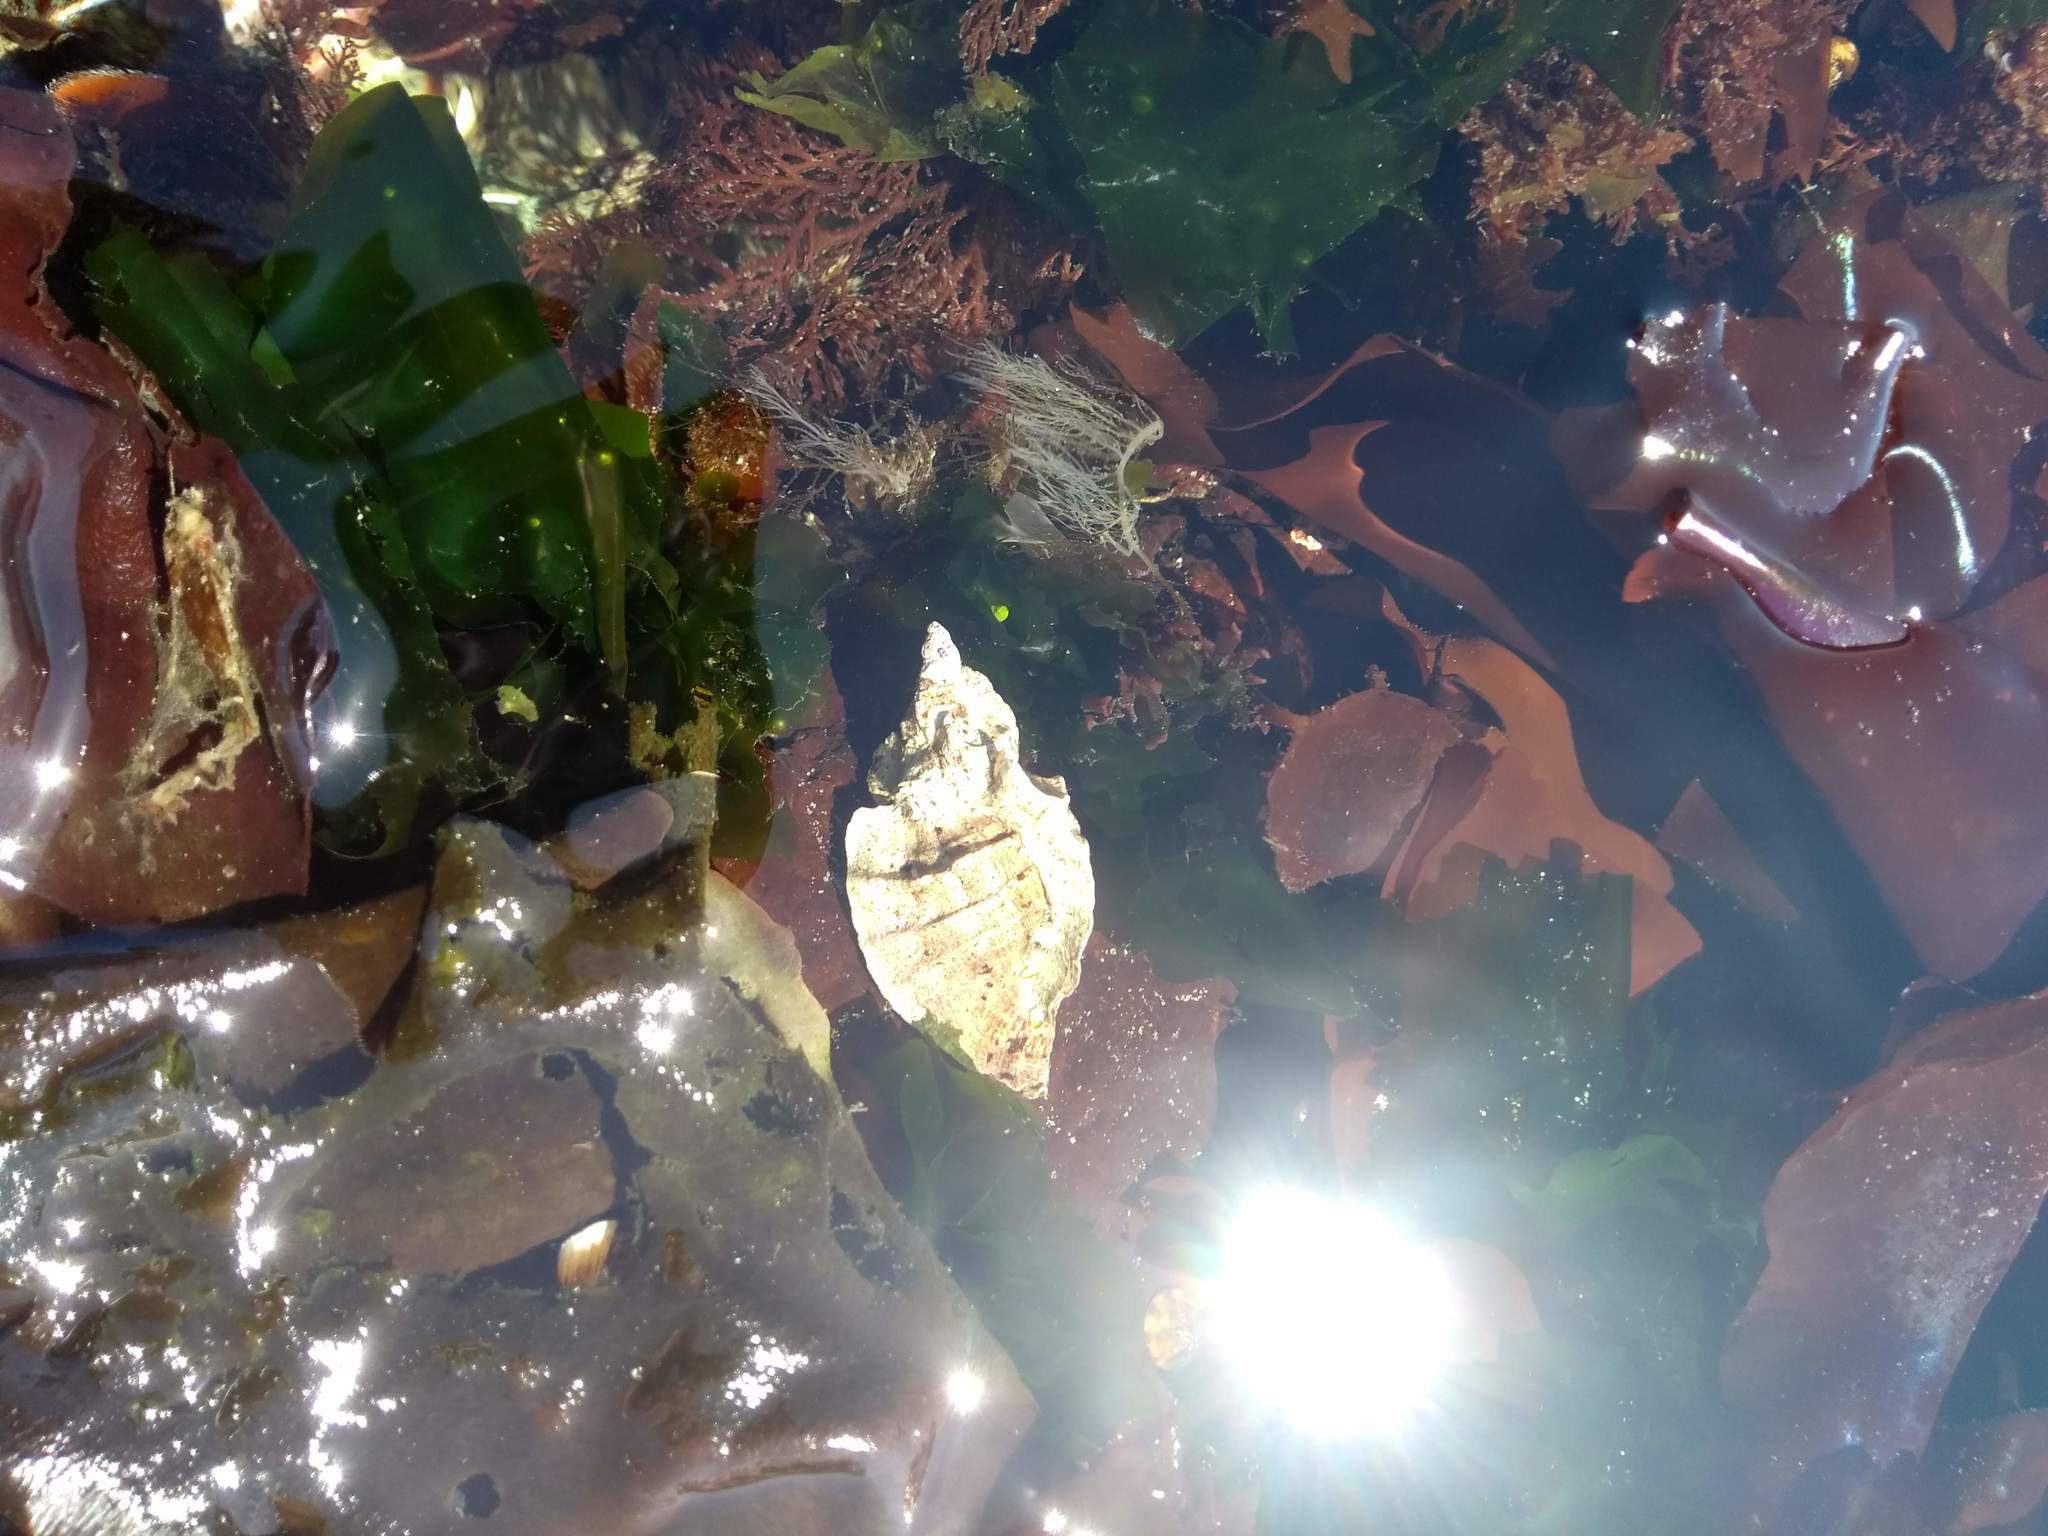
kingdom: Animalia
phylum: Mollusca
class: Gastropoda
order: Neogastropoda
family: Muricidae
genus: Ceratostoma
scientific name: Ceratostoma foliatum
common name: Foliate thorn purpura
